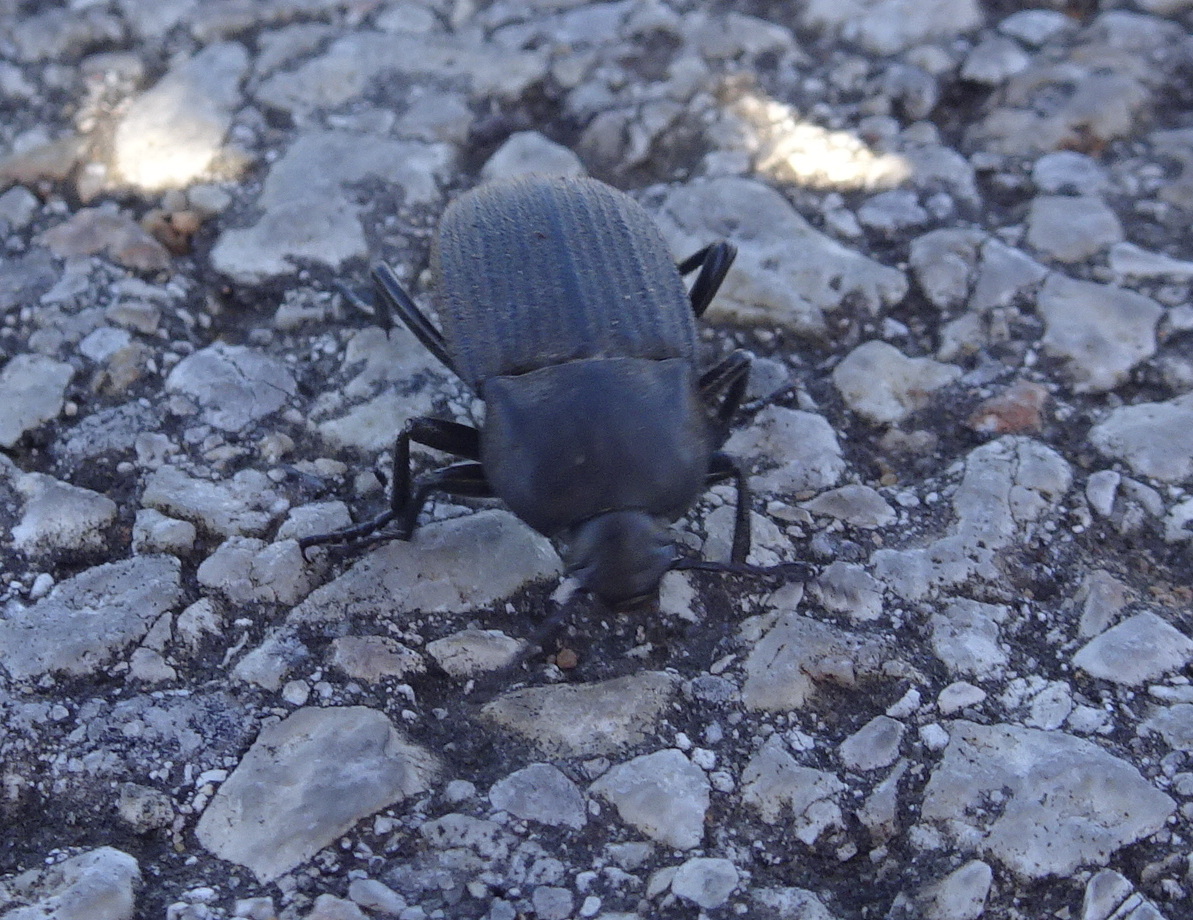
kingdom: Animalia
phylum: Arthropoda
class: Insecta
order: Coleoptera
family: Tenebrionidae
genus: Eleodes
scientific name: Eleodes tricostata
